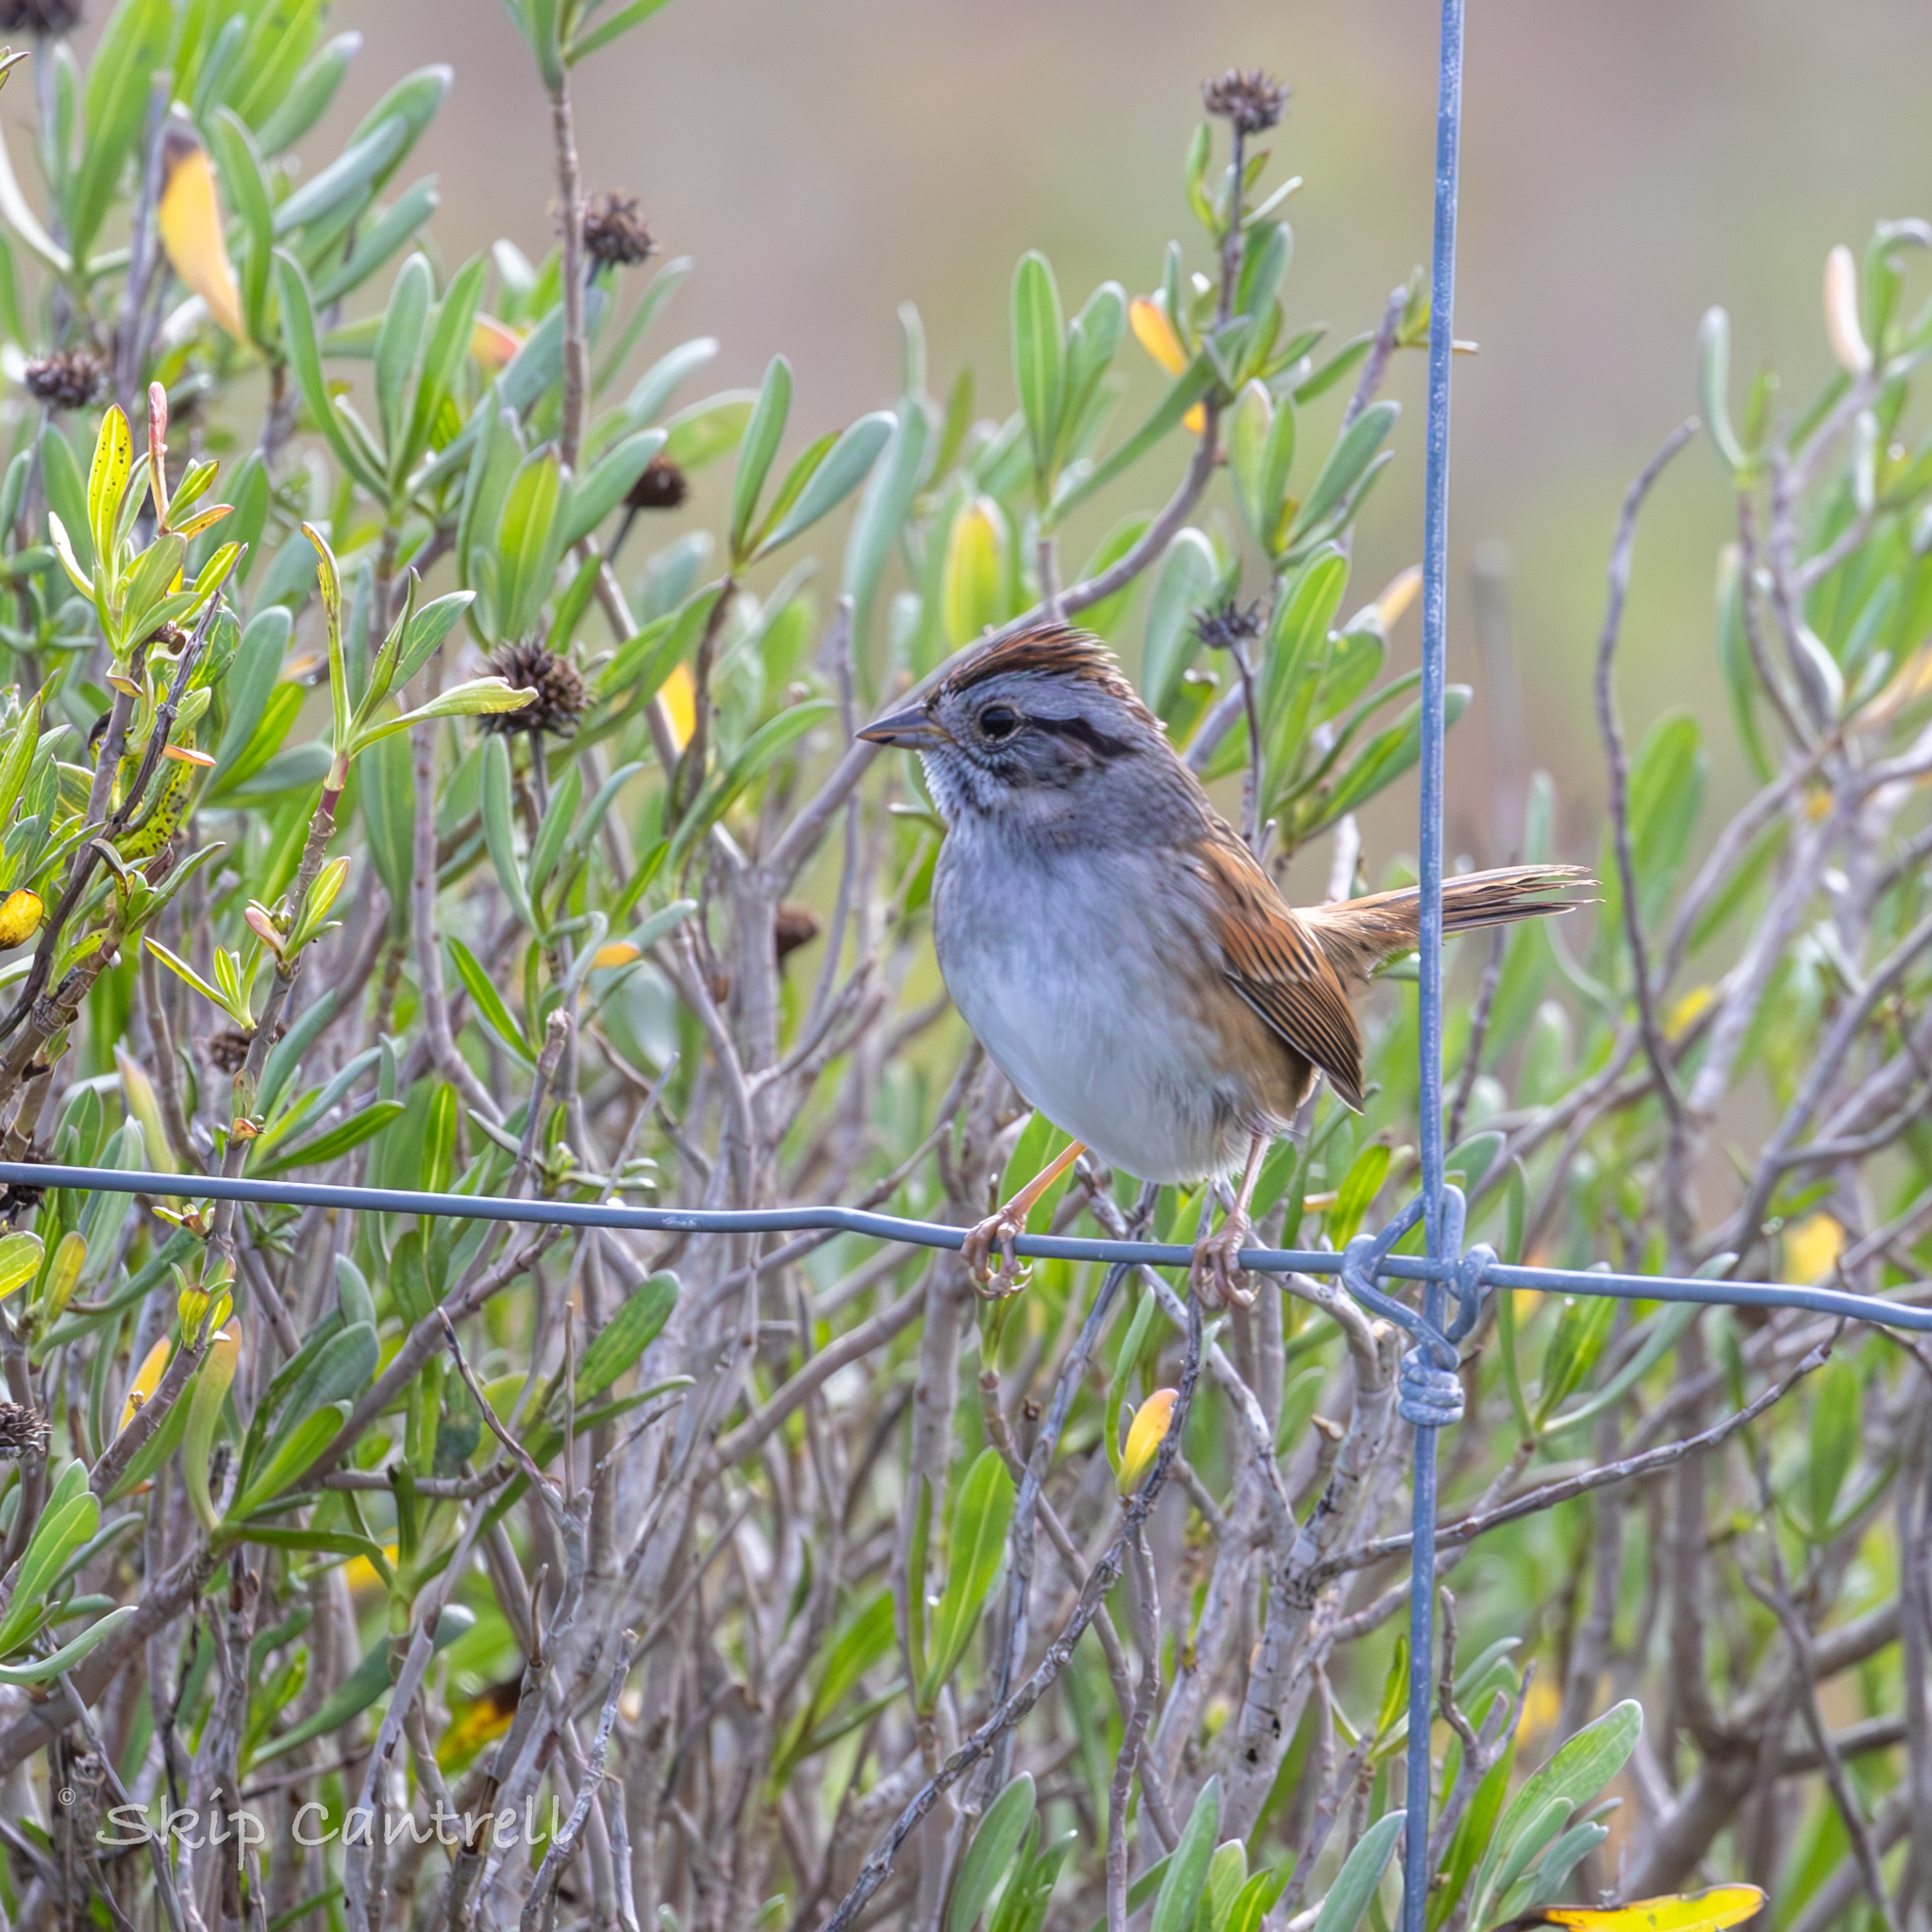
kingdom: Animalia
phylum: Chordata
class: Aves
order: Passeriformes
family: Passerellidae
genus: Melospiza
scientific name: Melospiza georgiana
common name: Swamp sparrow
